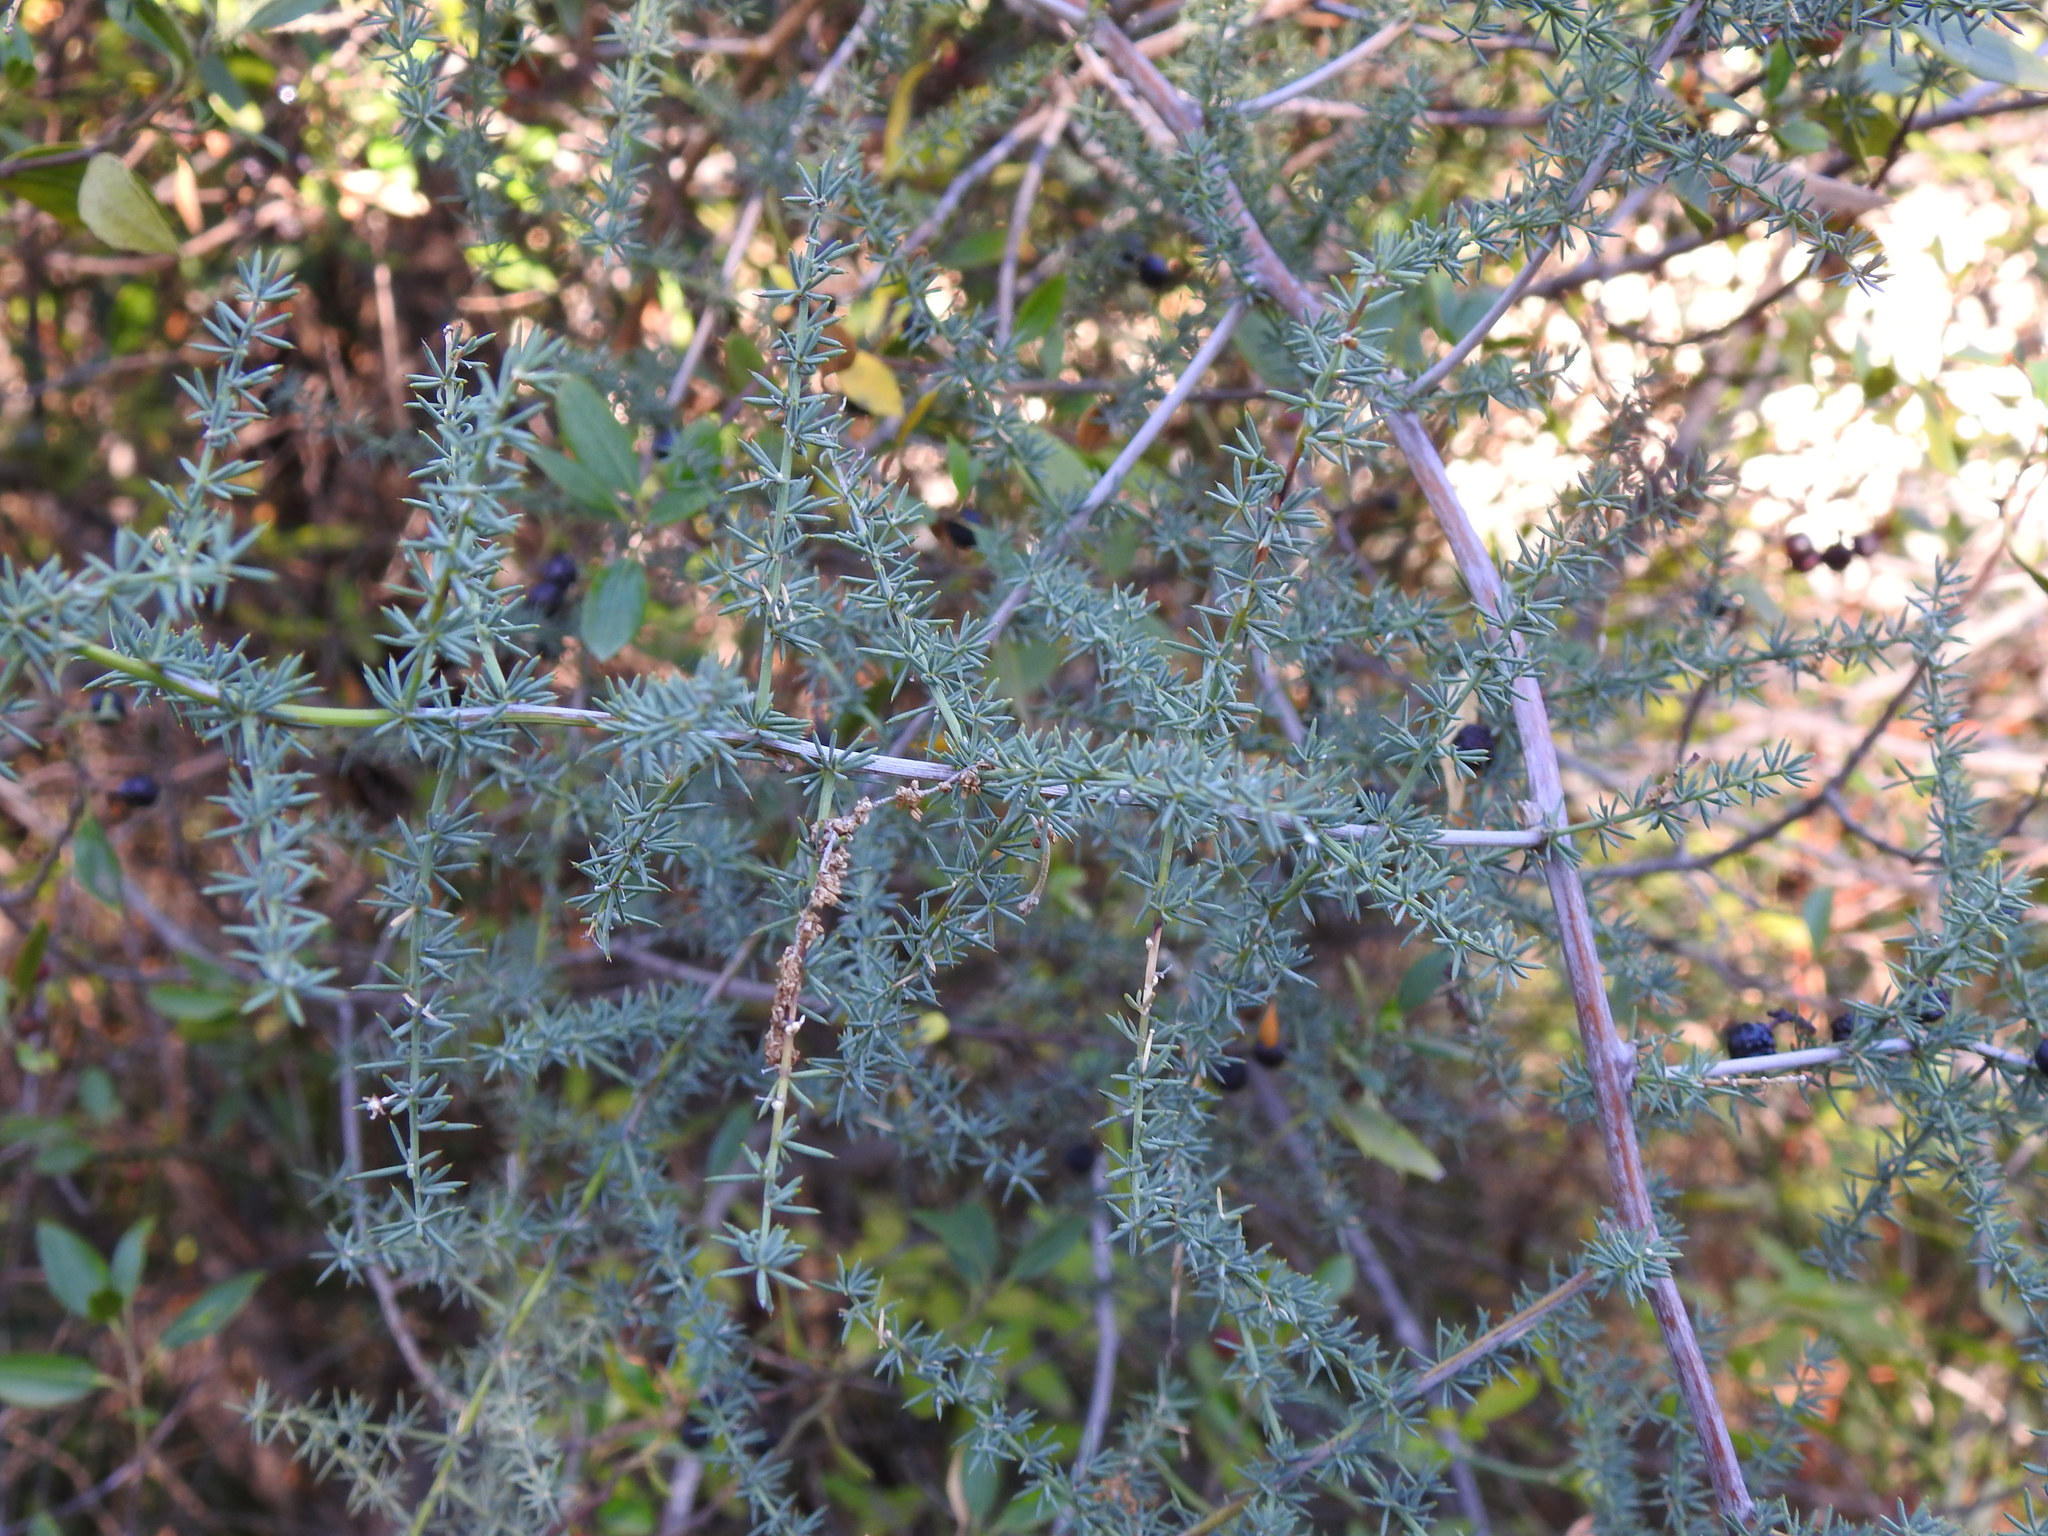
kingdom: Plantae
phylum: Tracheophyta
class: Liliopsida
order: Asparagales
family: Asparagaceae
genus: Asparagus
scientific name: Asparagus acutifolius
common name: Wild asparagus
